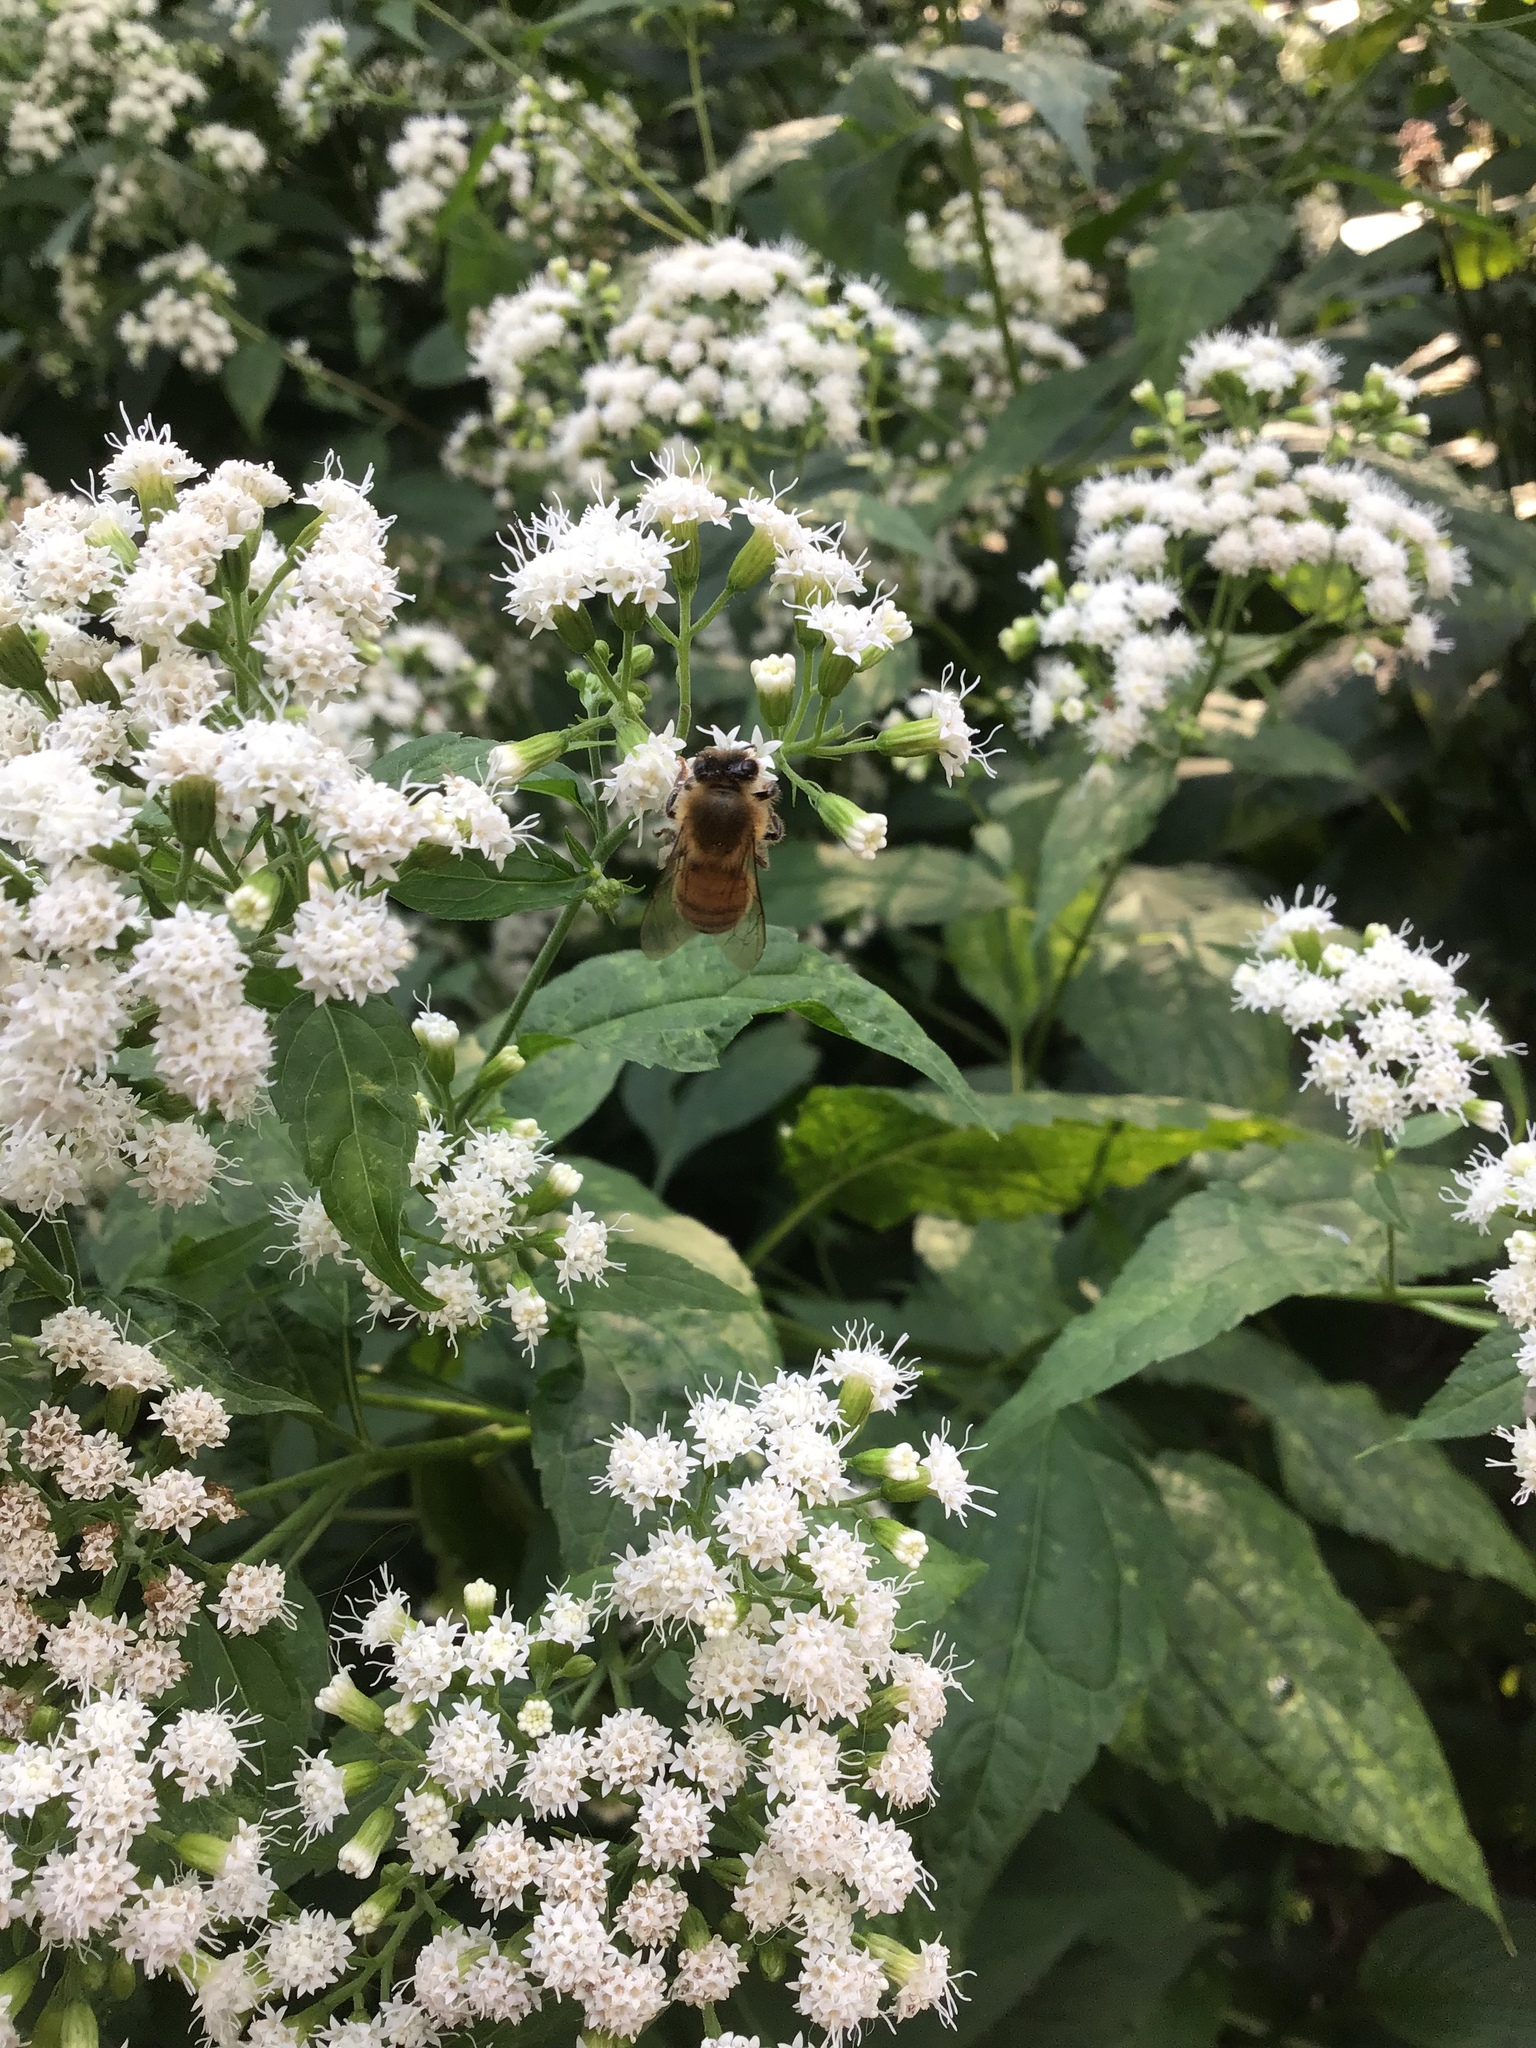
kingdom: Animalia
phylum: Arthropoda
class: Insecta
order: Hymenoptera
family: Apidae
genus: Apis
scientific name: Apis mellifera
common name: Honey bee
